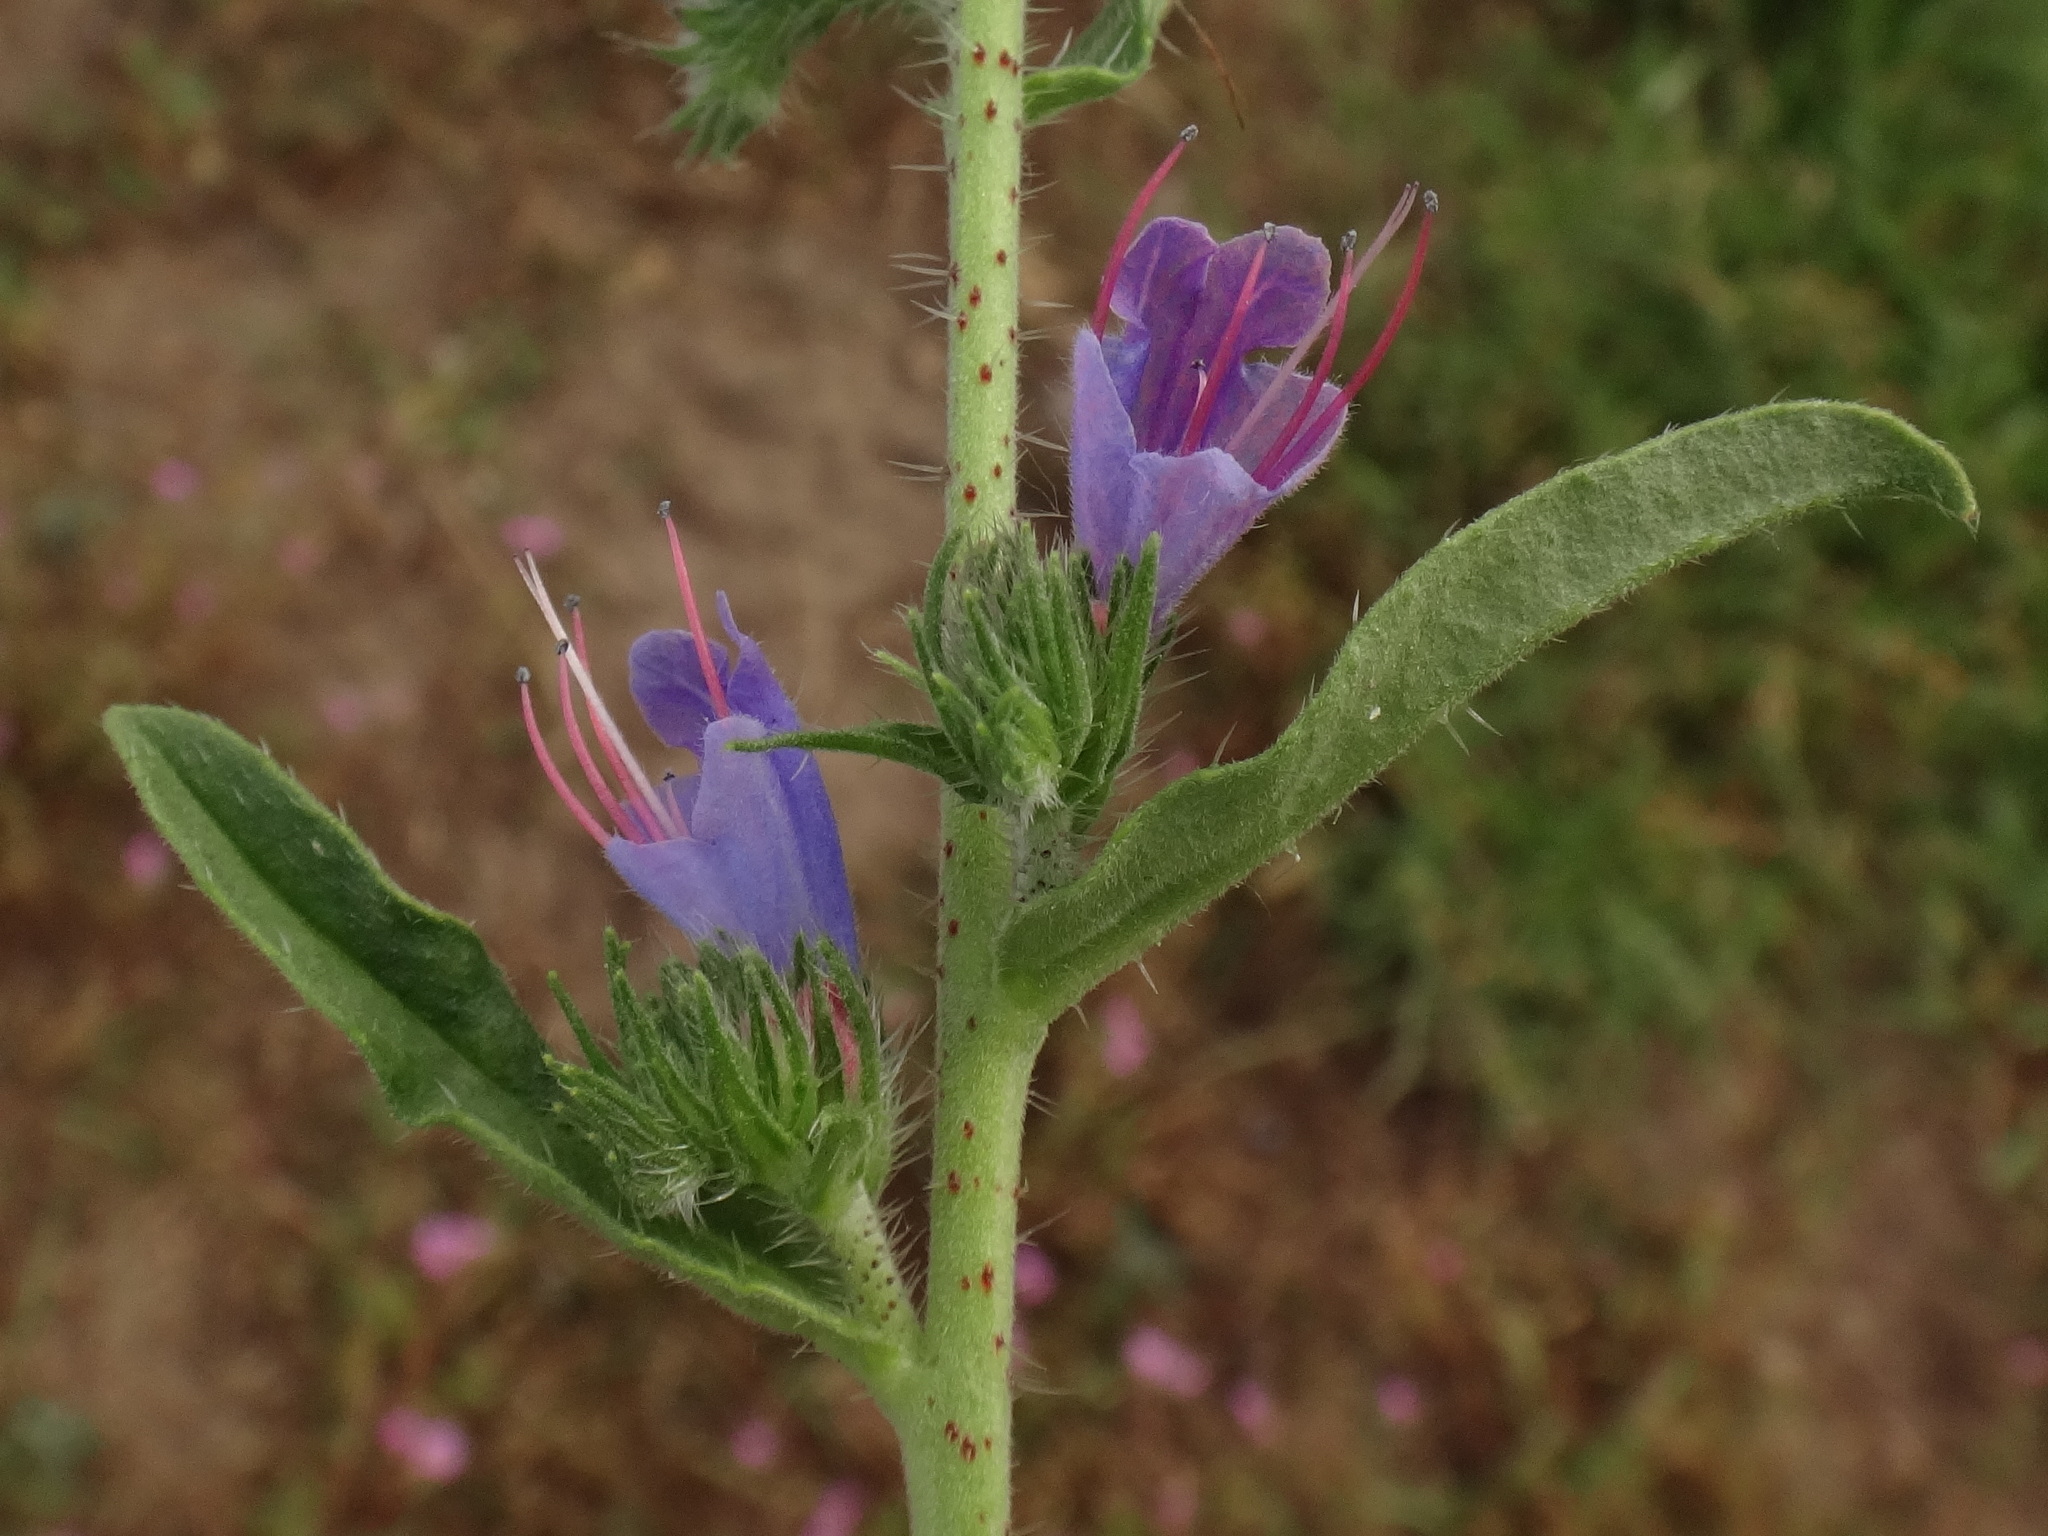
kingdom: Plantae
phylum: Tracheophyta
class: Magnoliopsida
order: Boraginales
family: Boraginaceae
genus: Echium
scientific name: Echium vulgare
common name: Common viper's bugloss
